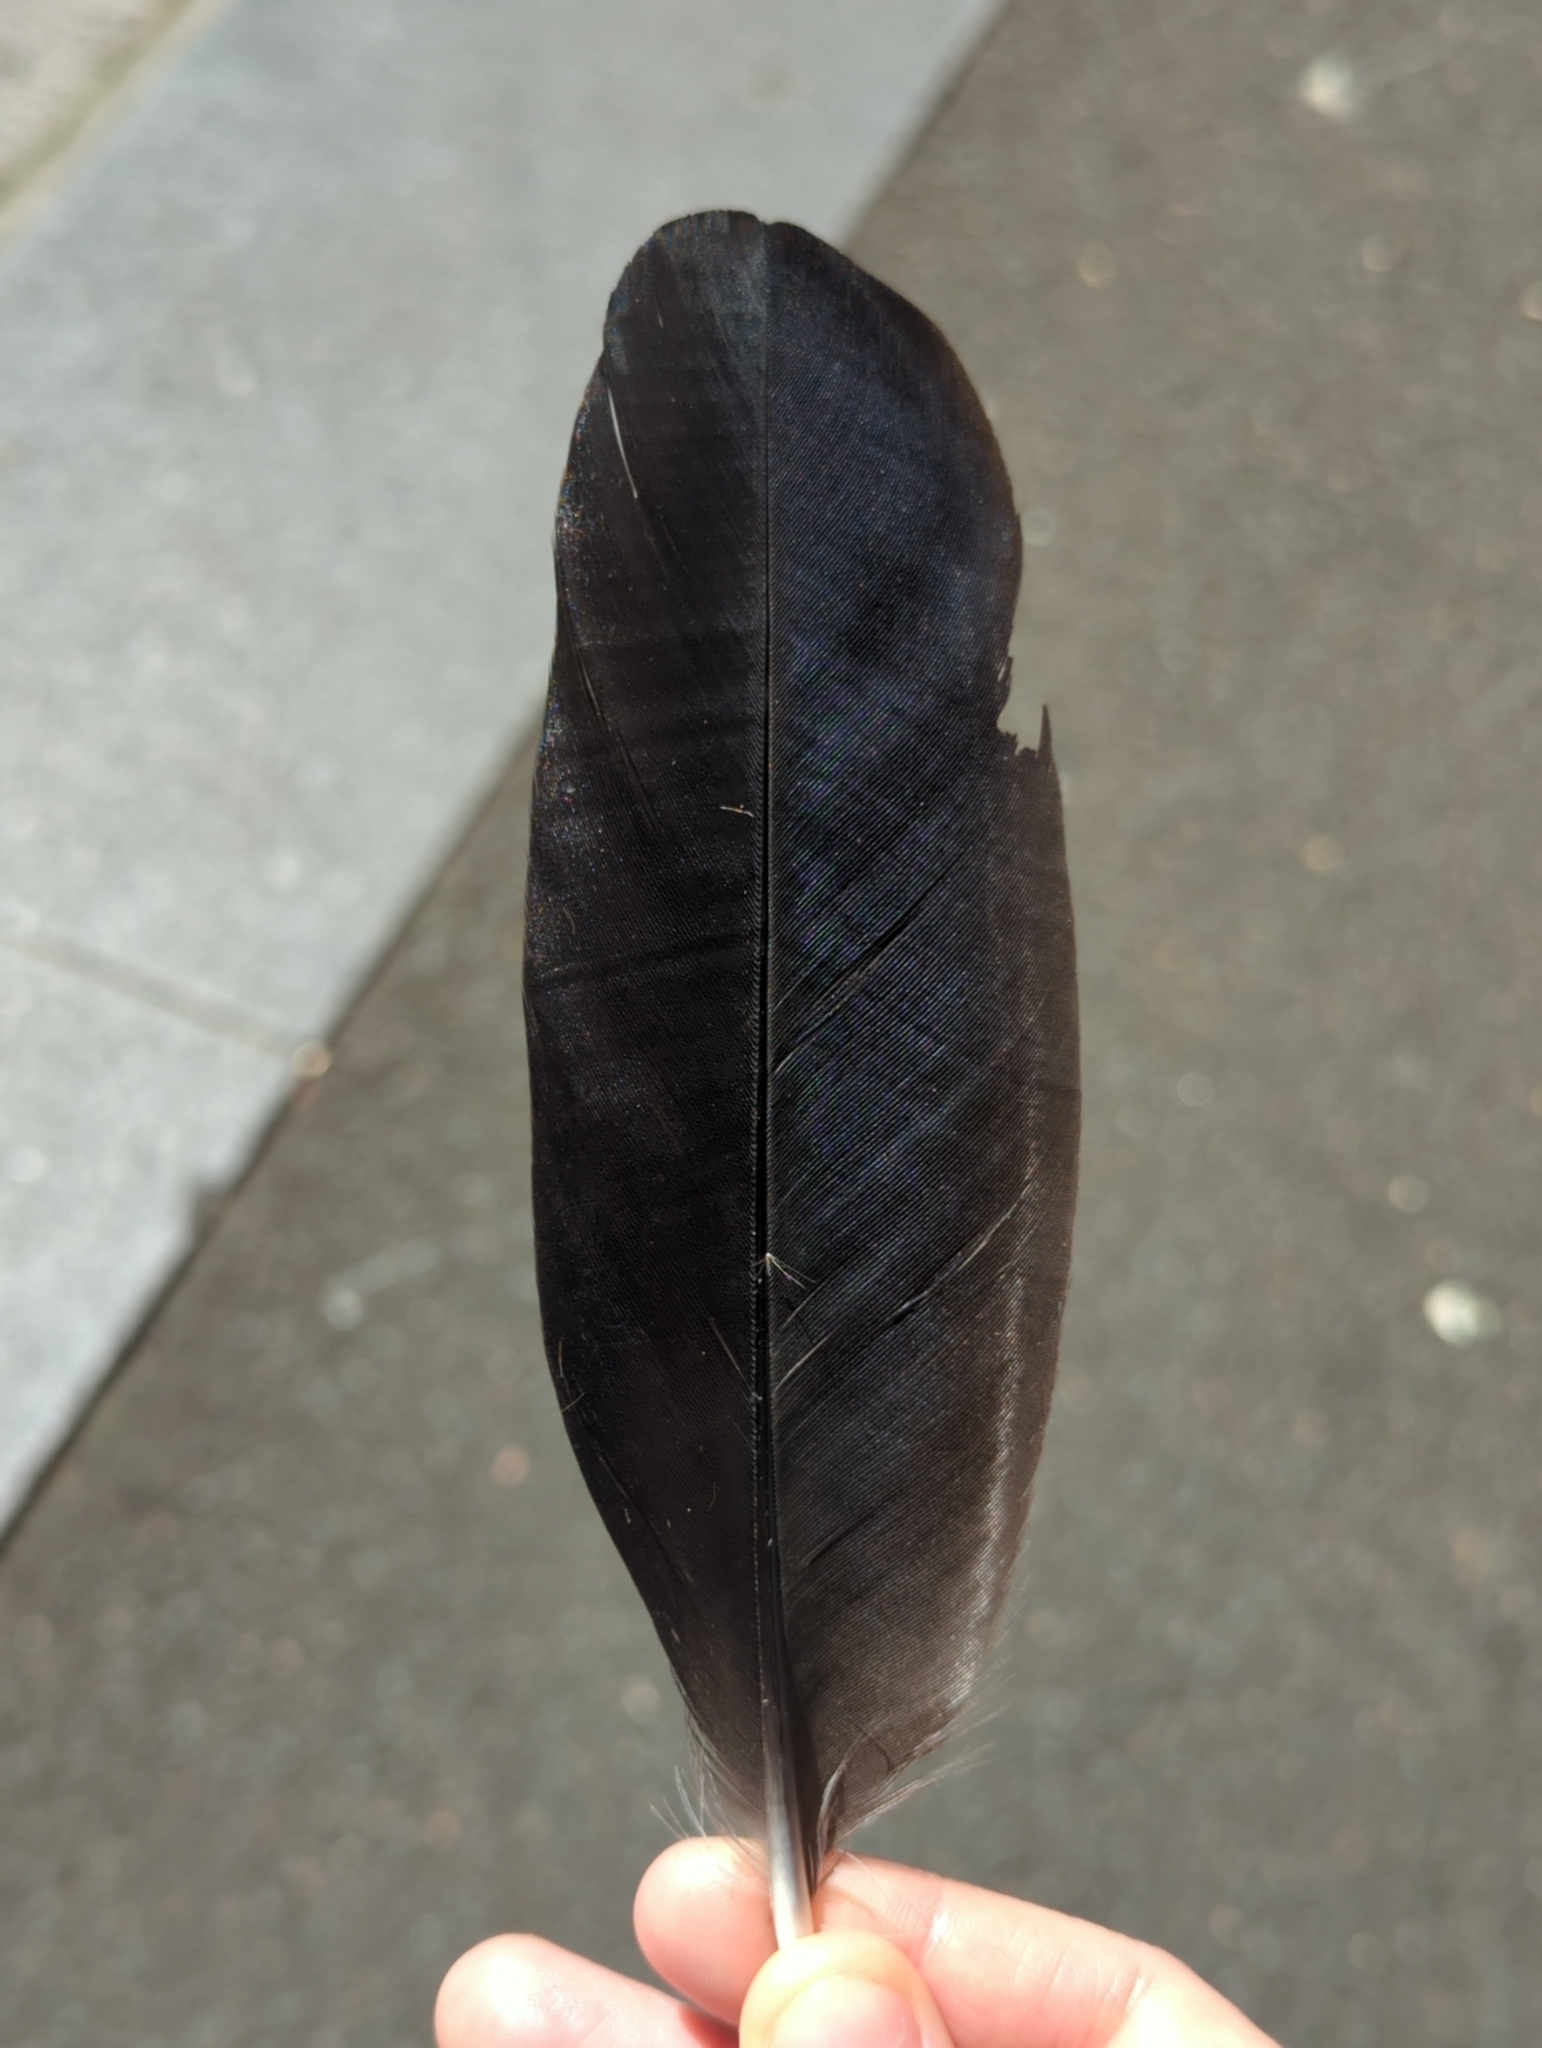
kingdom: Animalia
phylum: Chordata
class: Aves
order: Galliformes
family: Megapodiidae
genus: Alectura
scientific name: Alectura lathami
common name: Australian brushturkey
